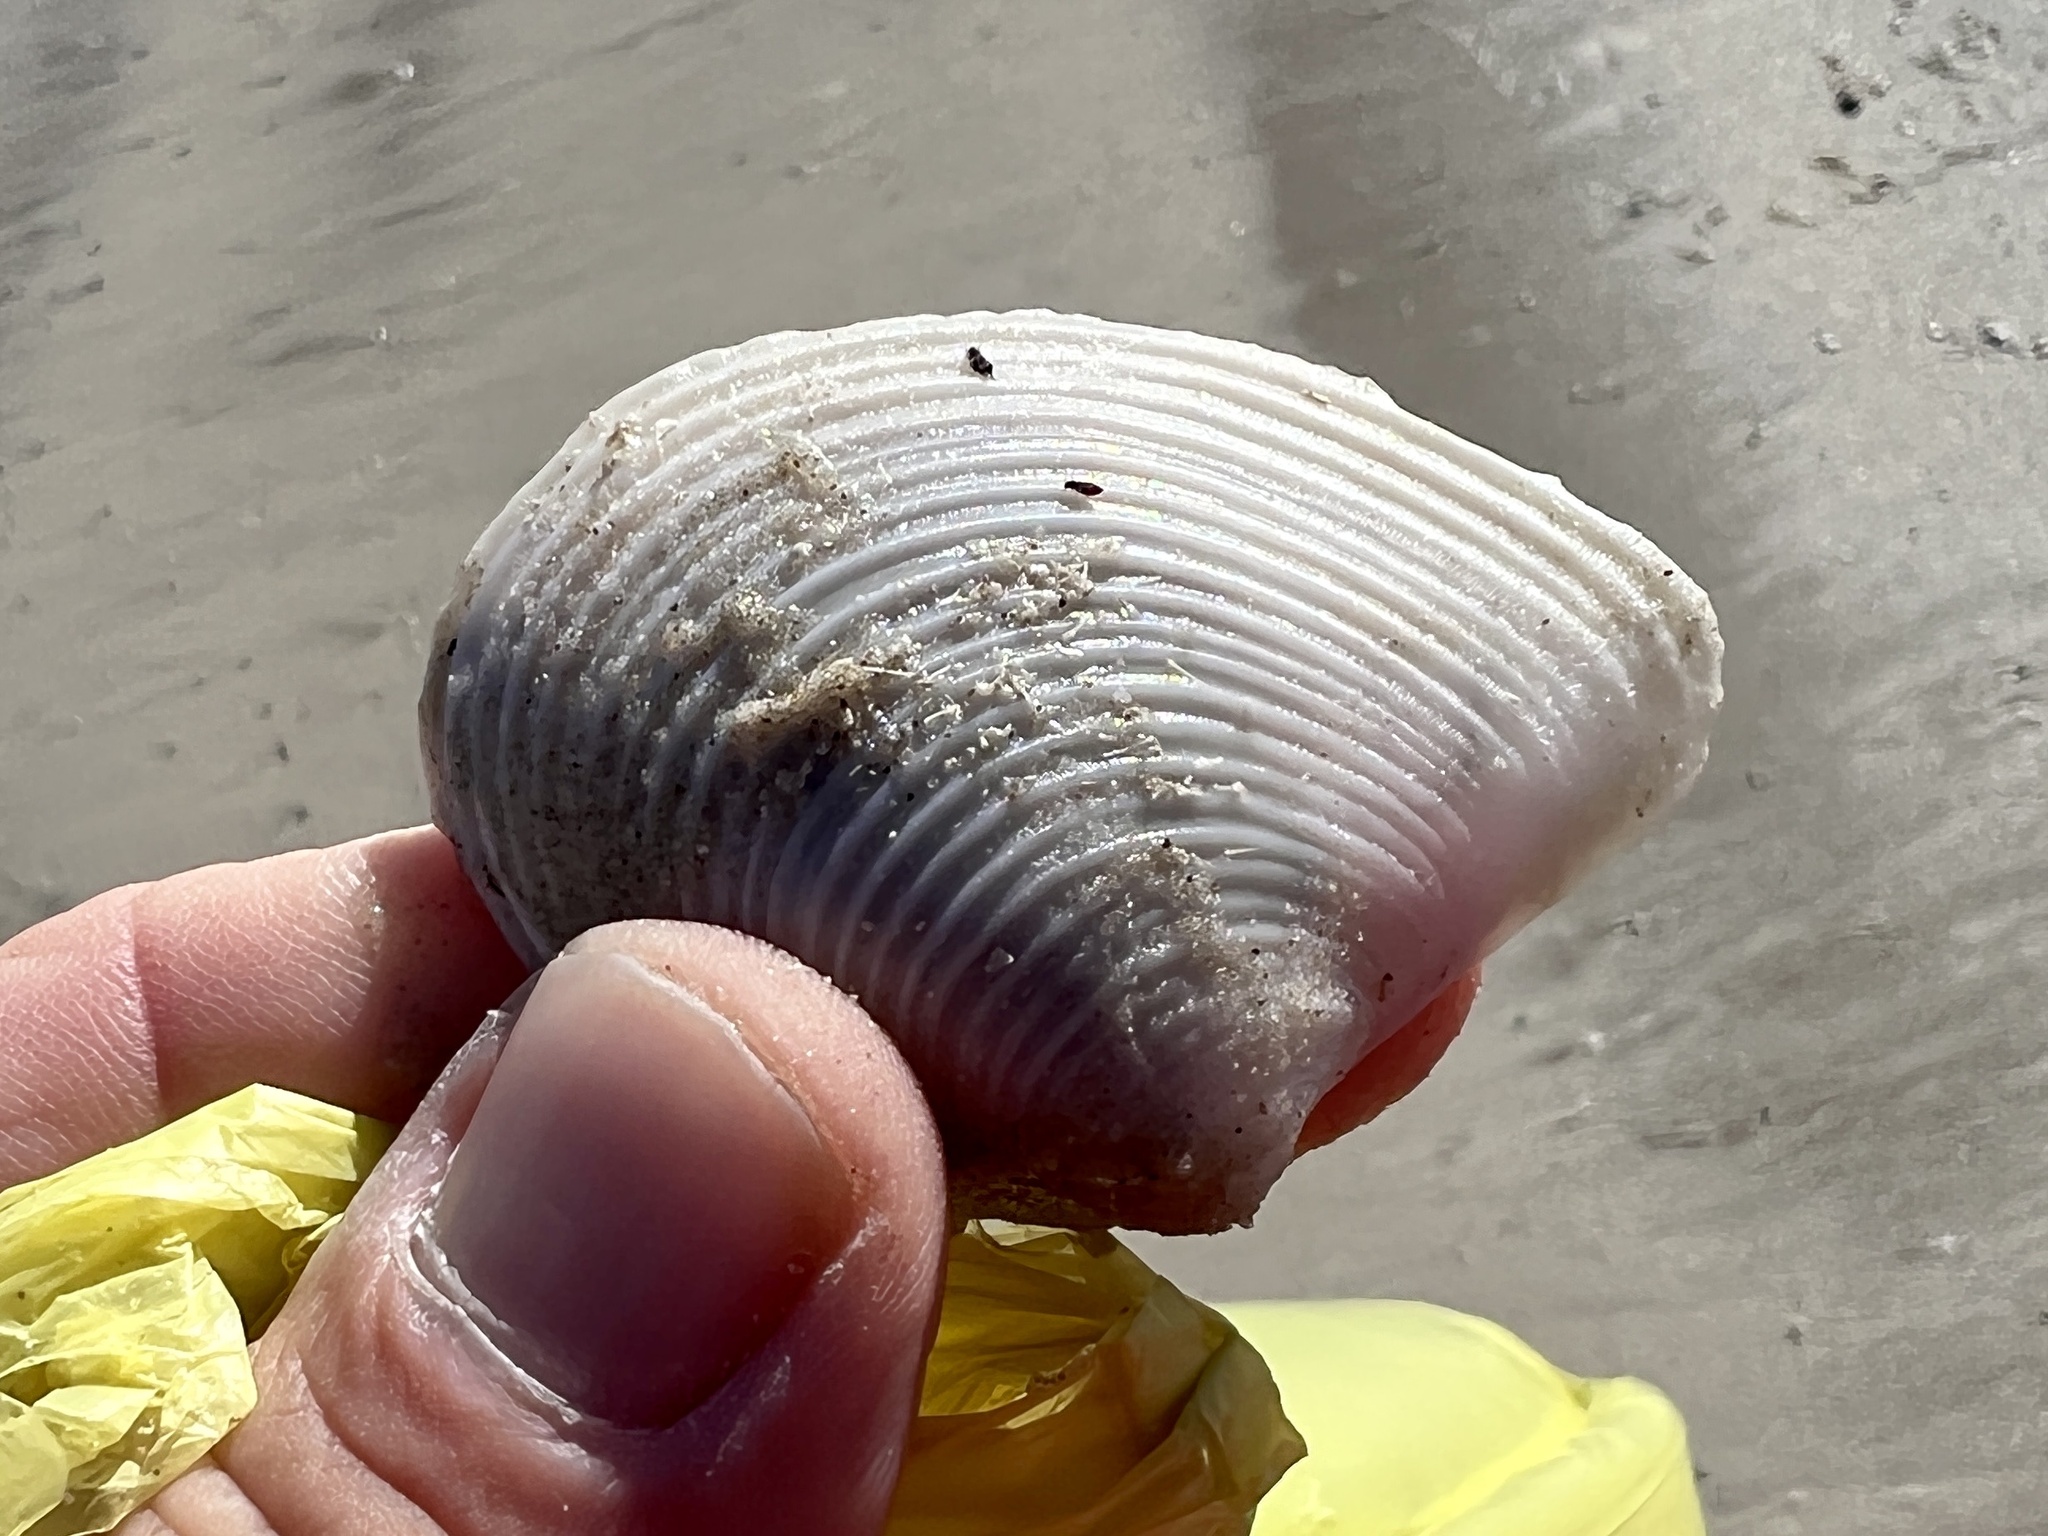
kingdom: Animalia
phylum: Mollusca
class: Bivalvia
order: Venerida
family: Anatinellidae
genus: Raeta
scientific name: Raeta plicatella
